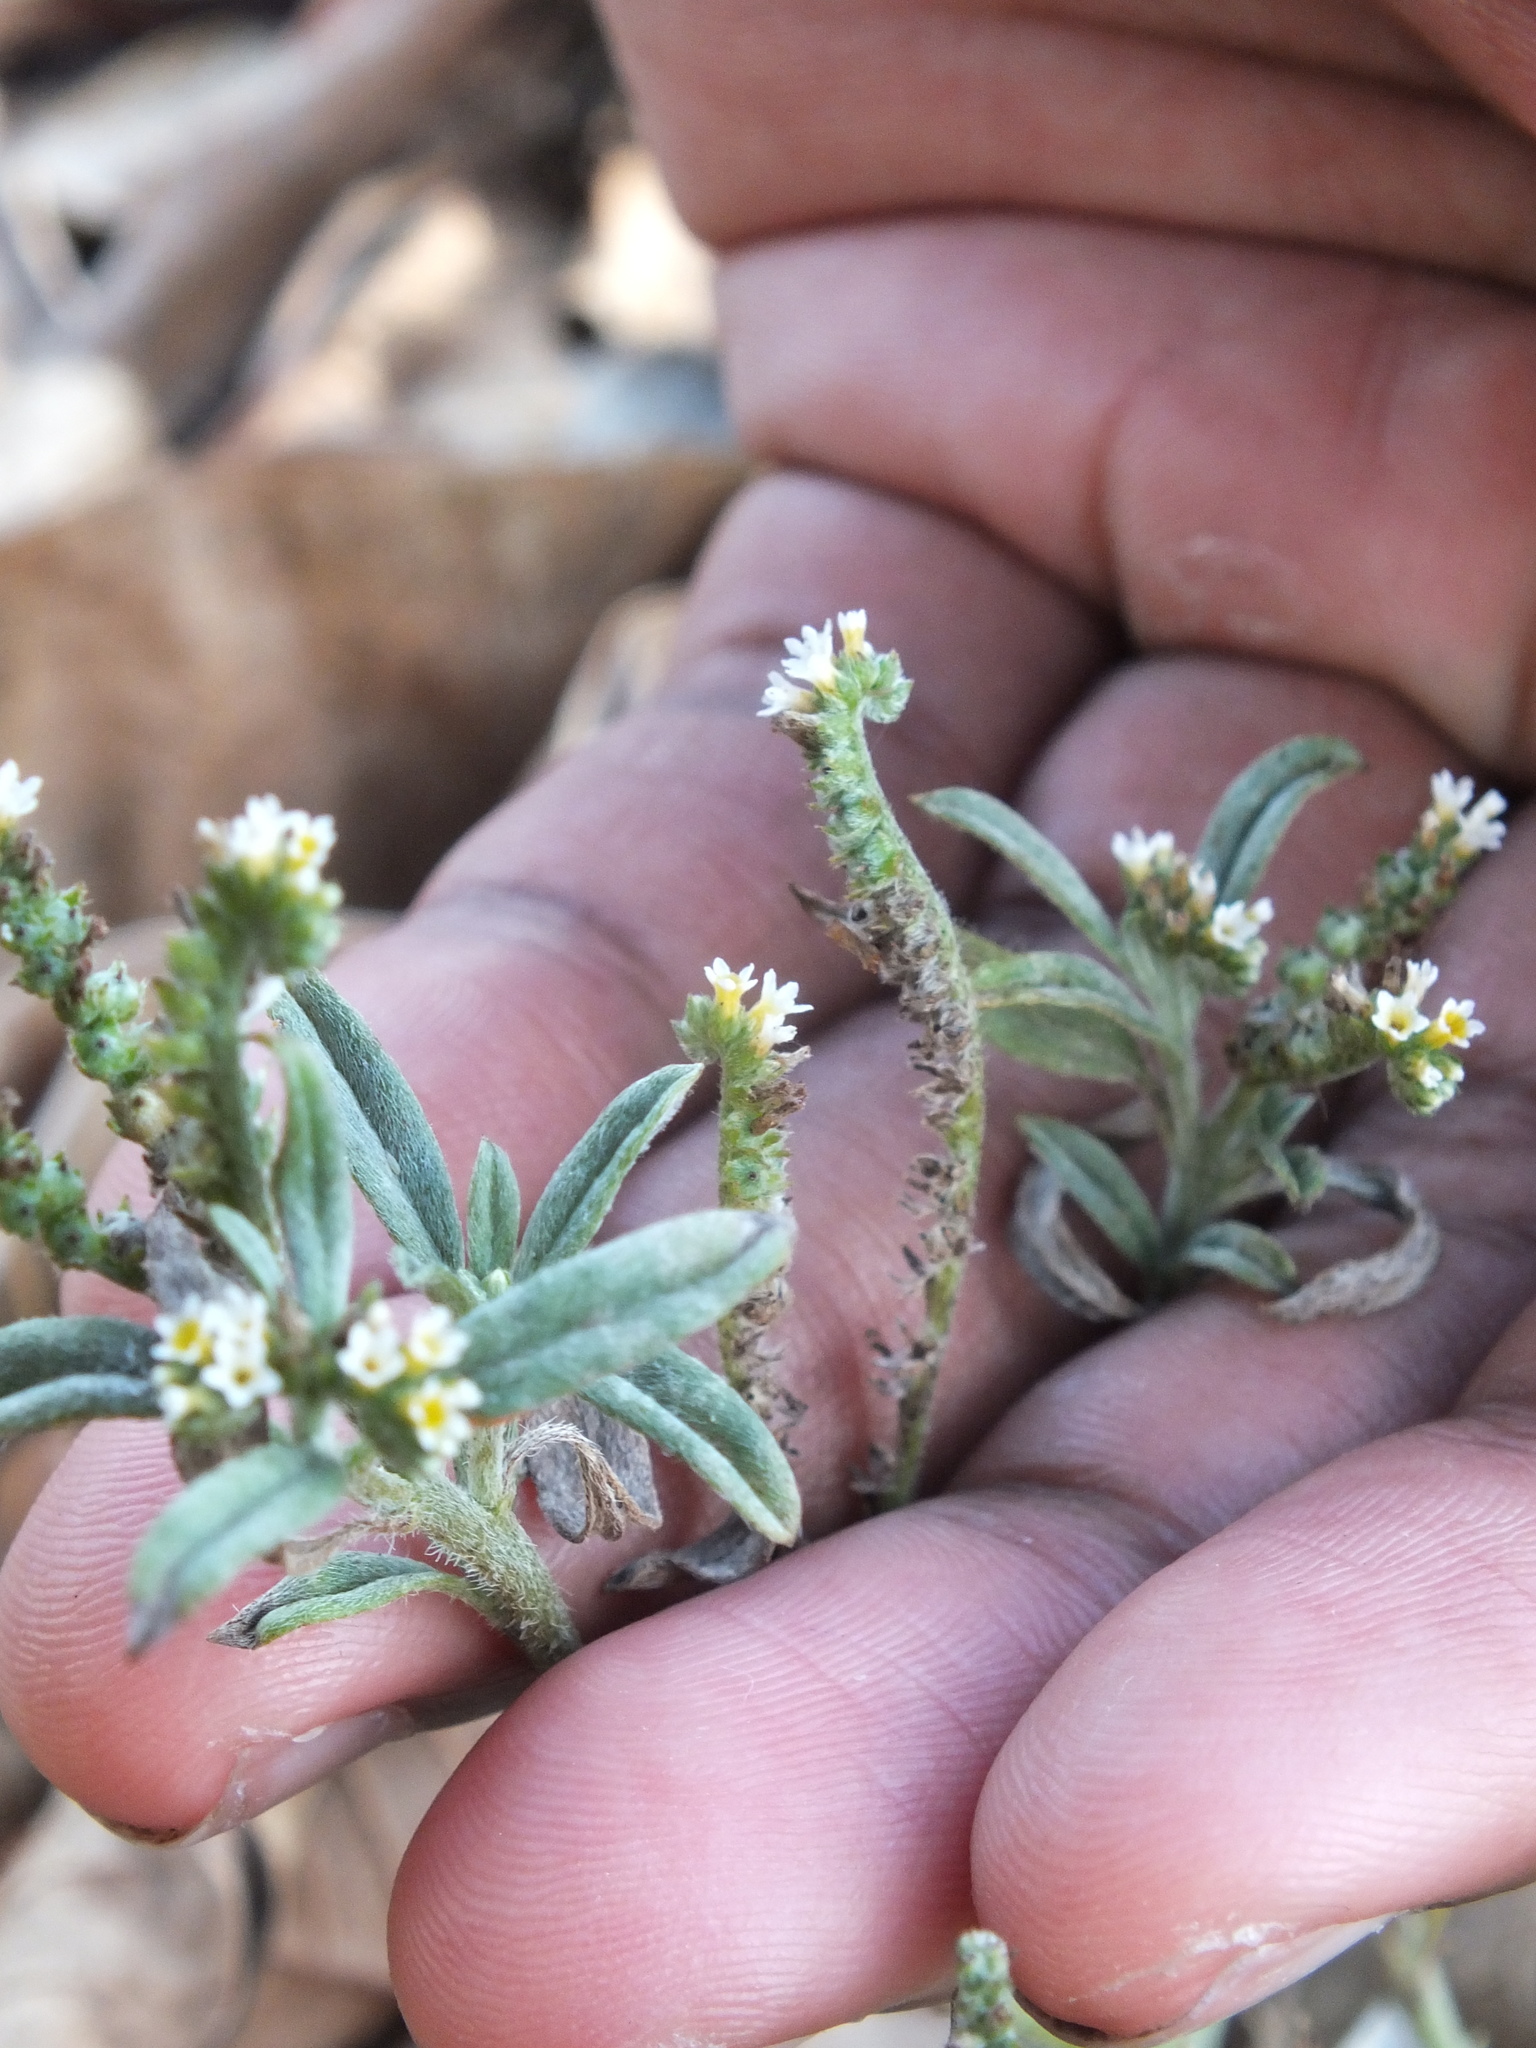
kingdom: Plantae
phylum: Tracheophyta
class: Magnoliopsida
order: Boraginales
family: Heliotropiaceae
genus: Euploca
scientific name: Euploca procumbens
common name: Fourspike heliotrope
